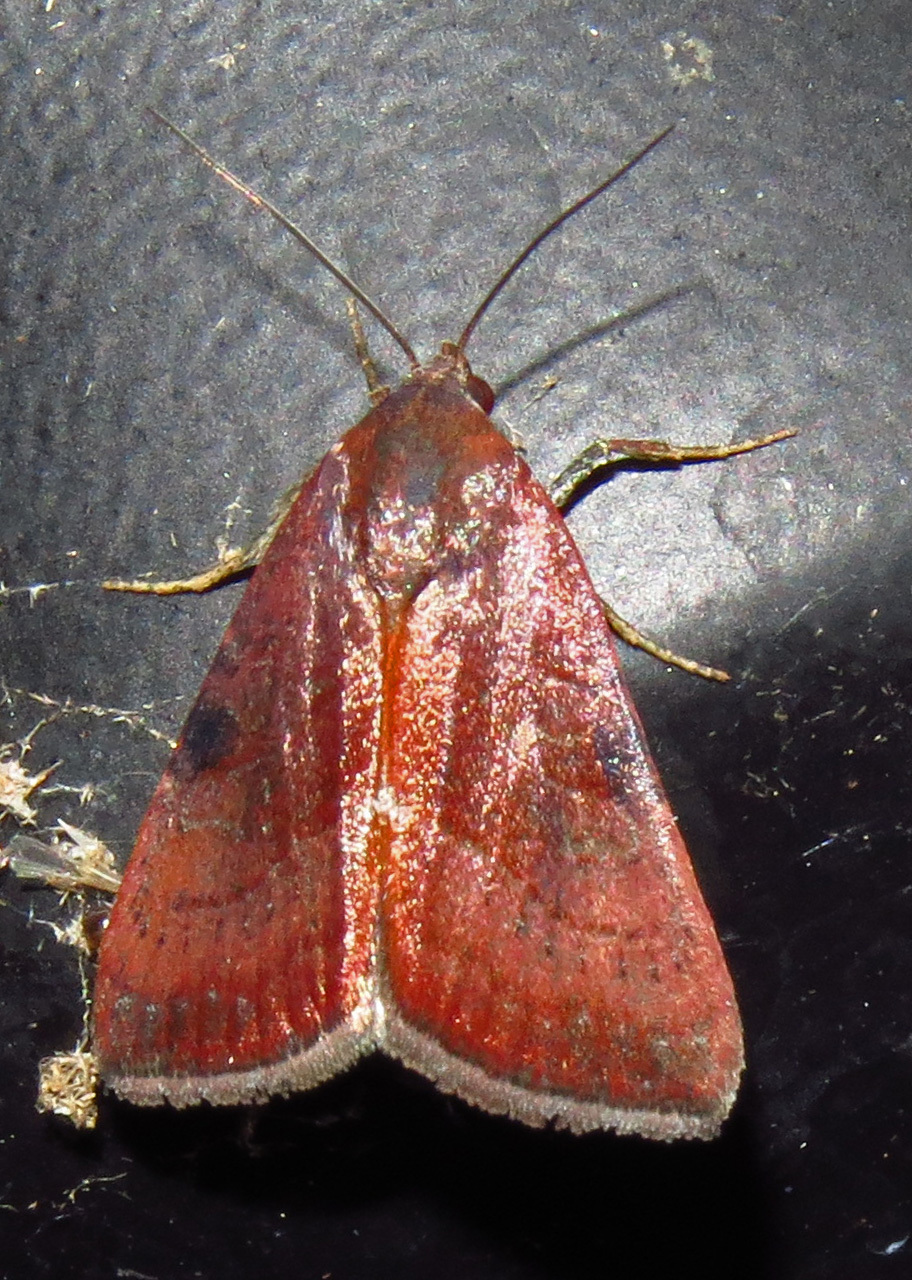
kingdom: Animalia
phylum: Arthropoda
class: Insecta
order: Lepidoptera
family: Noctuidae
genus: Galgula
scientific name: Galgula partita
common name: Wedgeling
